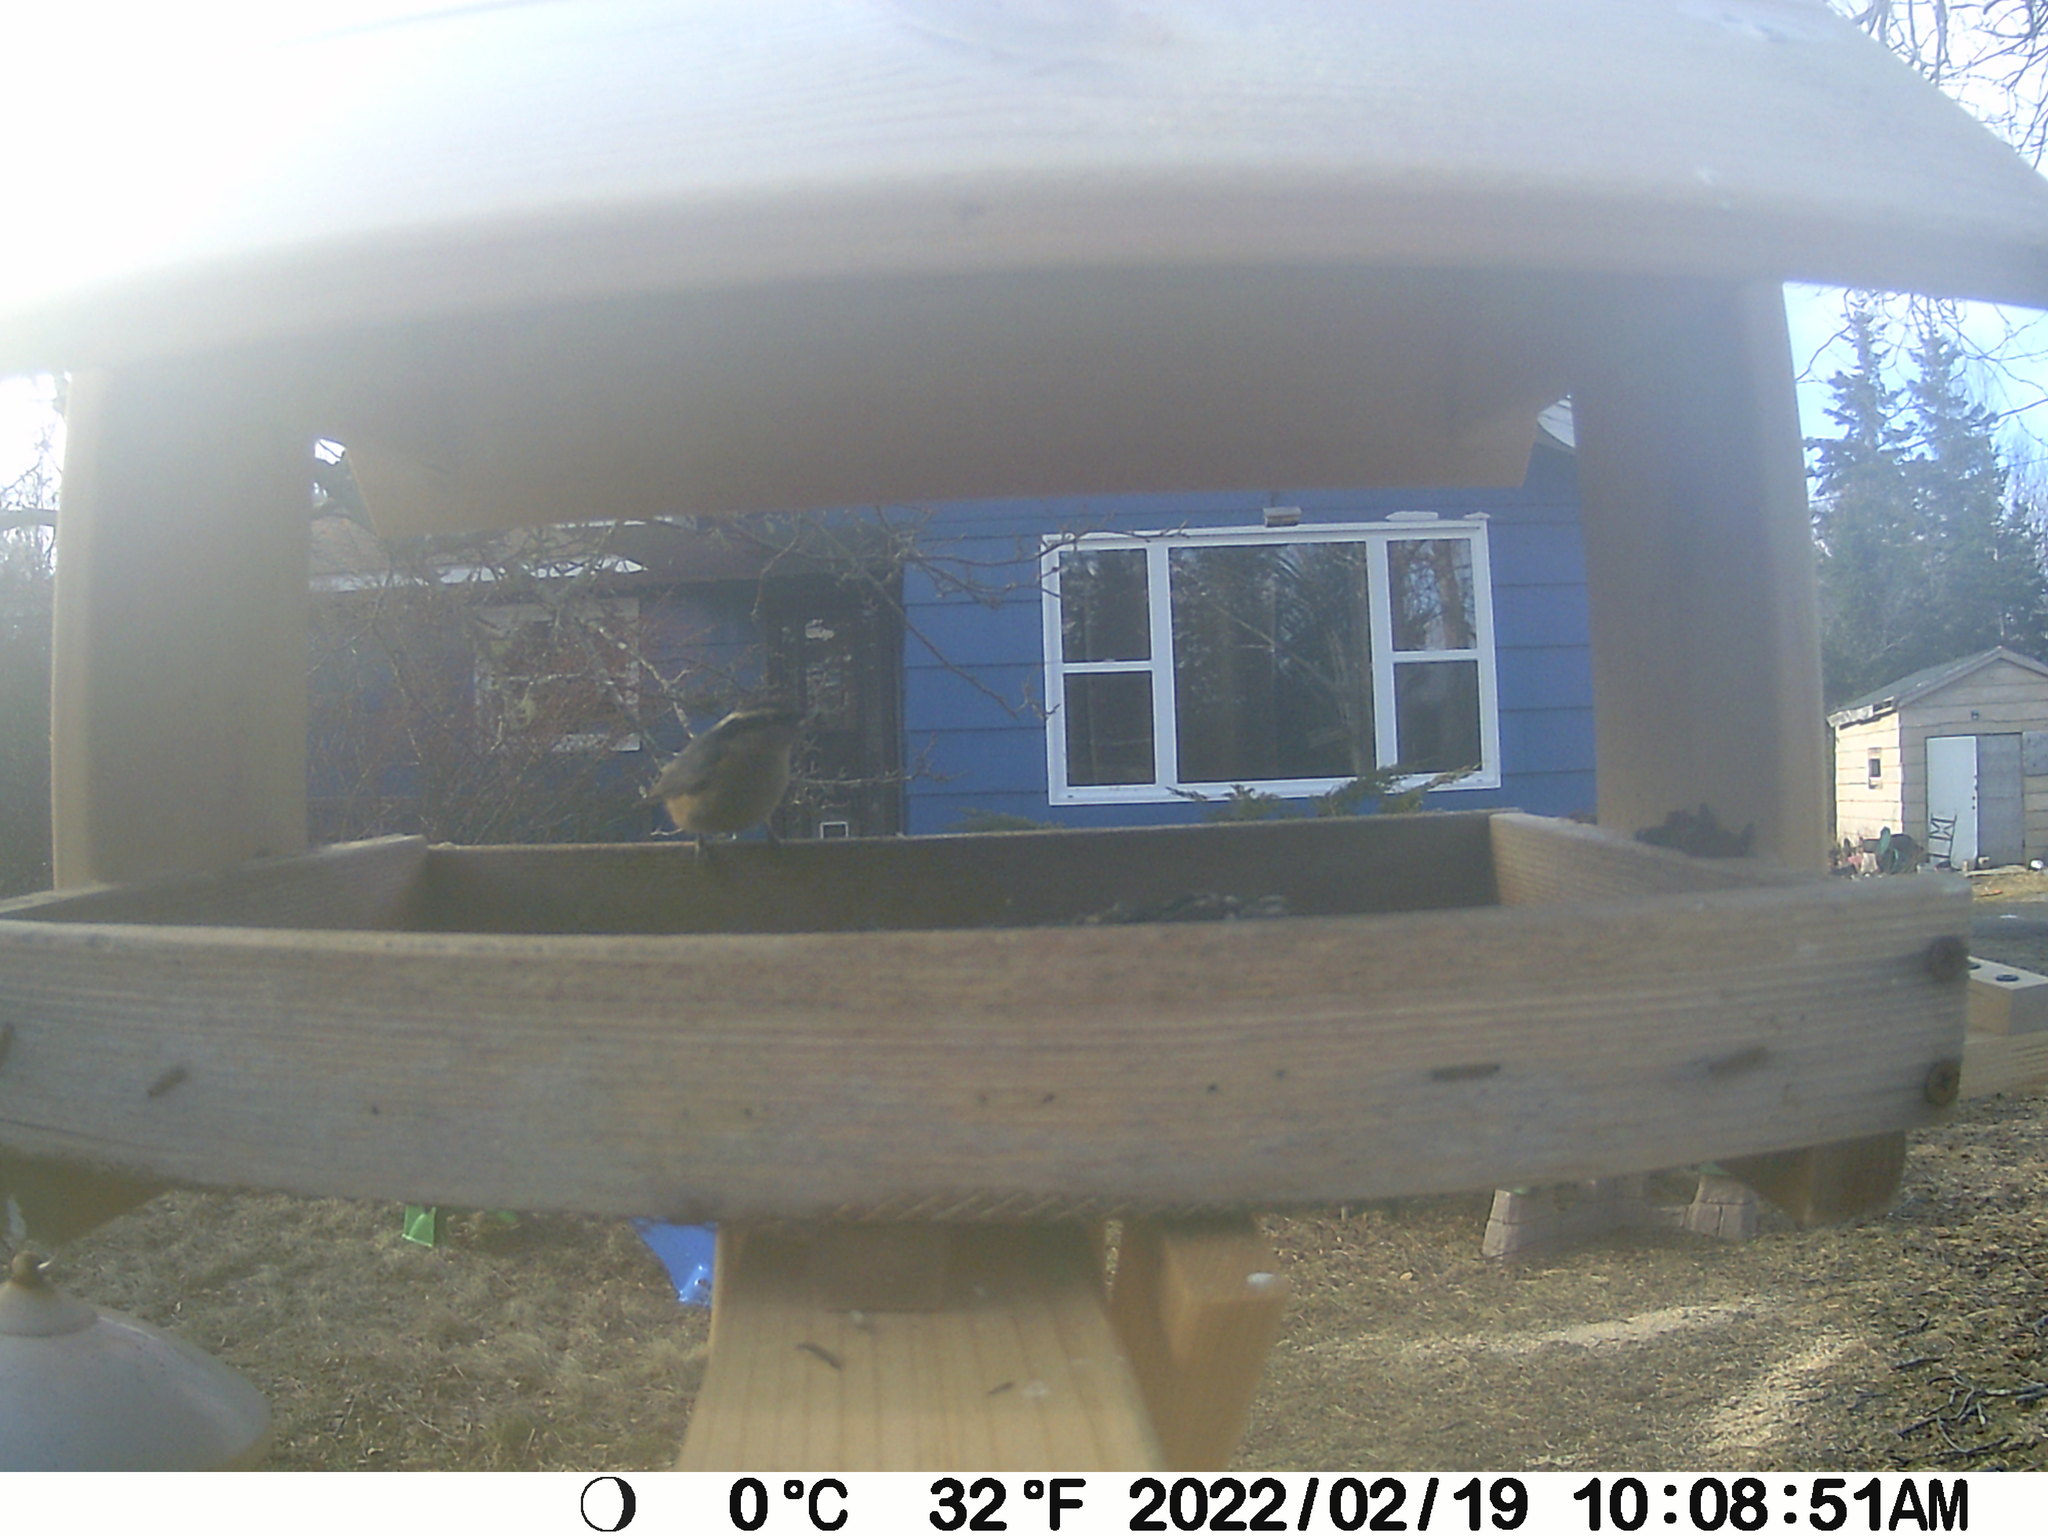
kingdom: Animalia
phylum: Chordata
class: Aves
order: Passeriformes
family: Sittidae
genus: Sitta
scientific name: Sitta canadensis
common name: Red-breasted nuthatch
